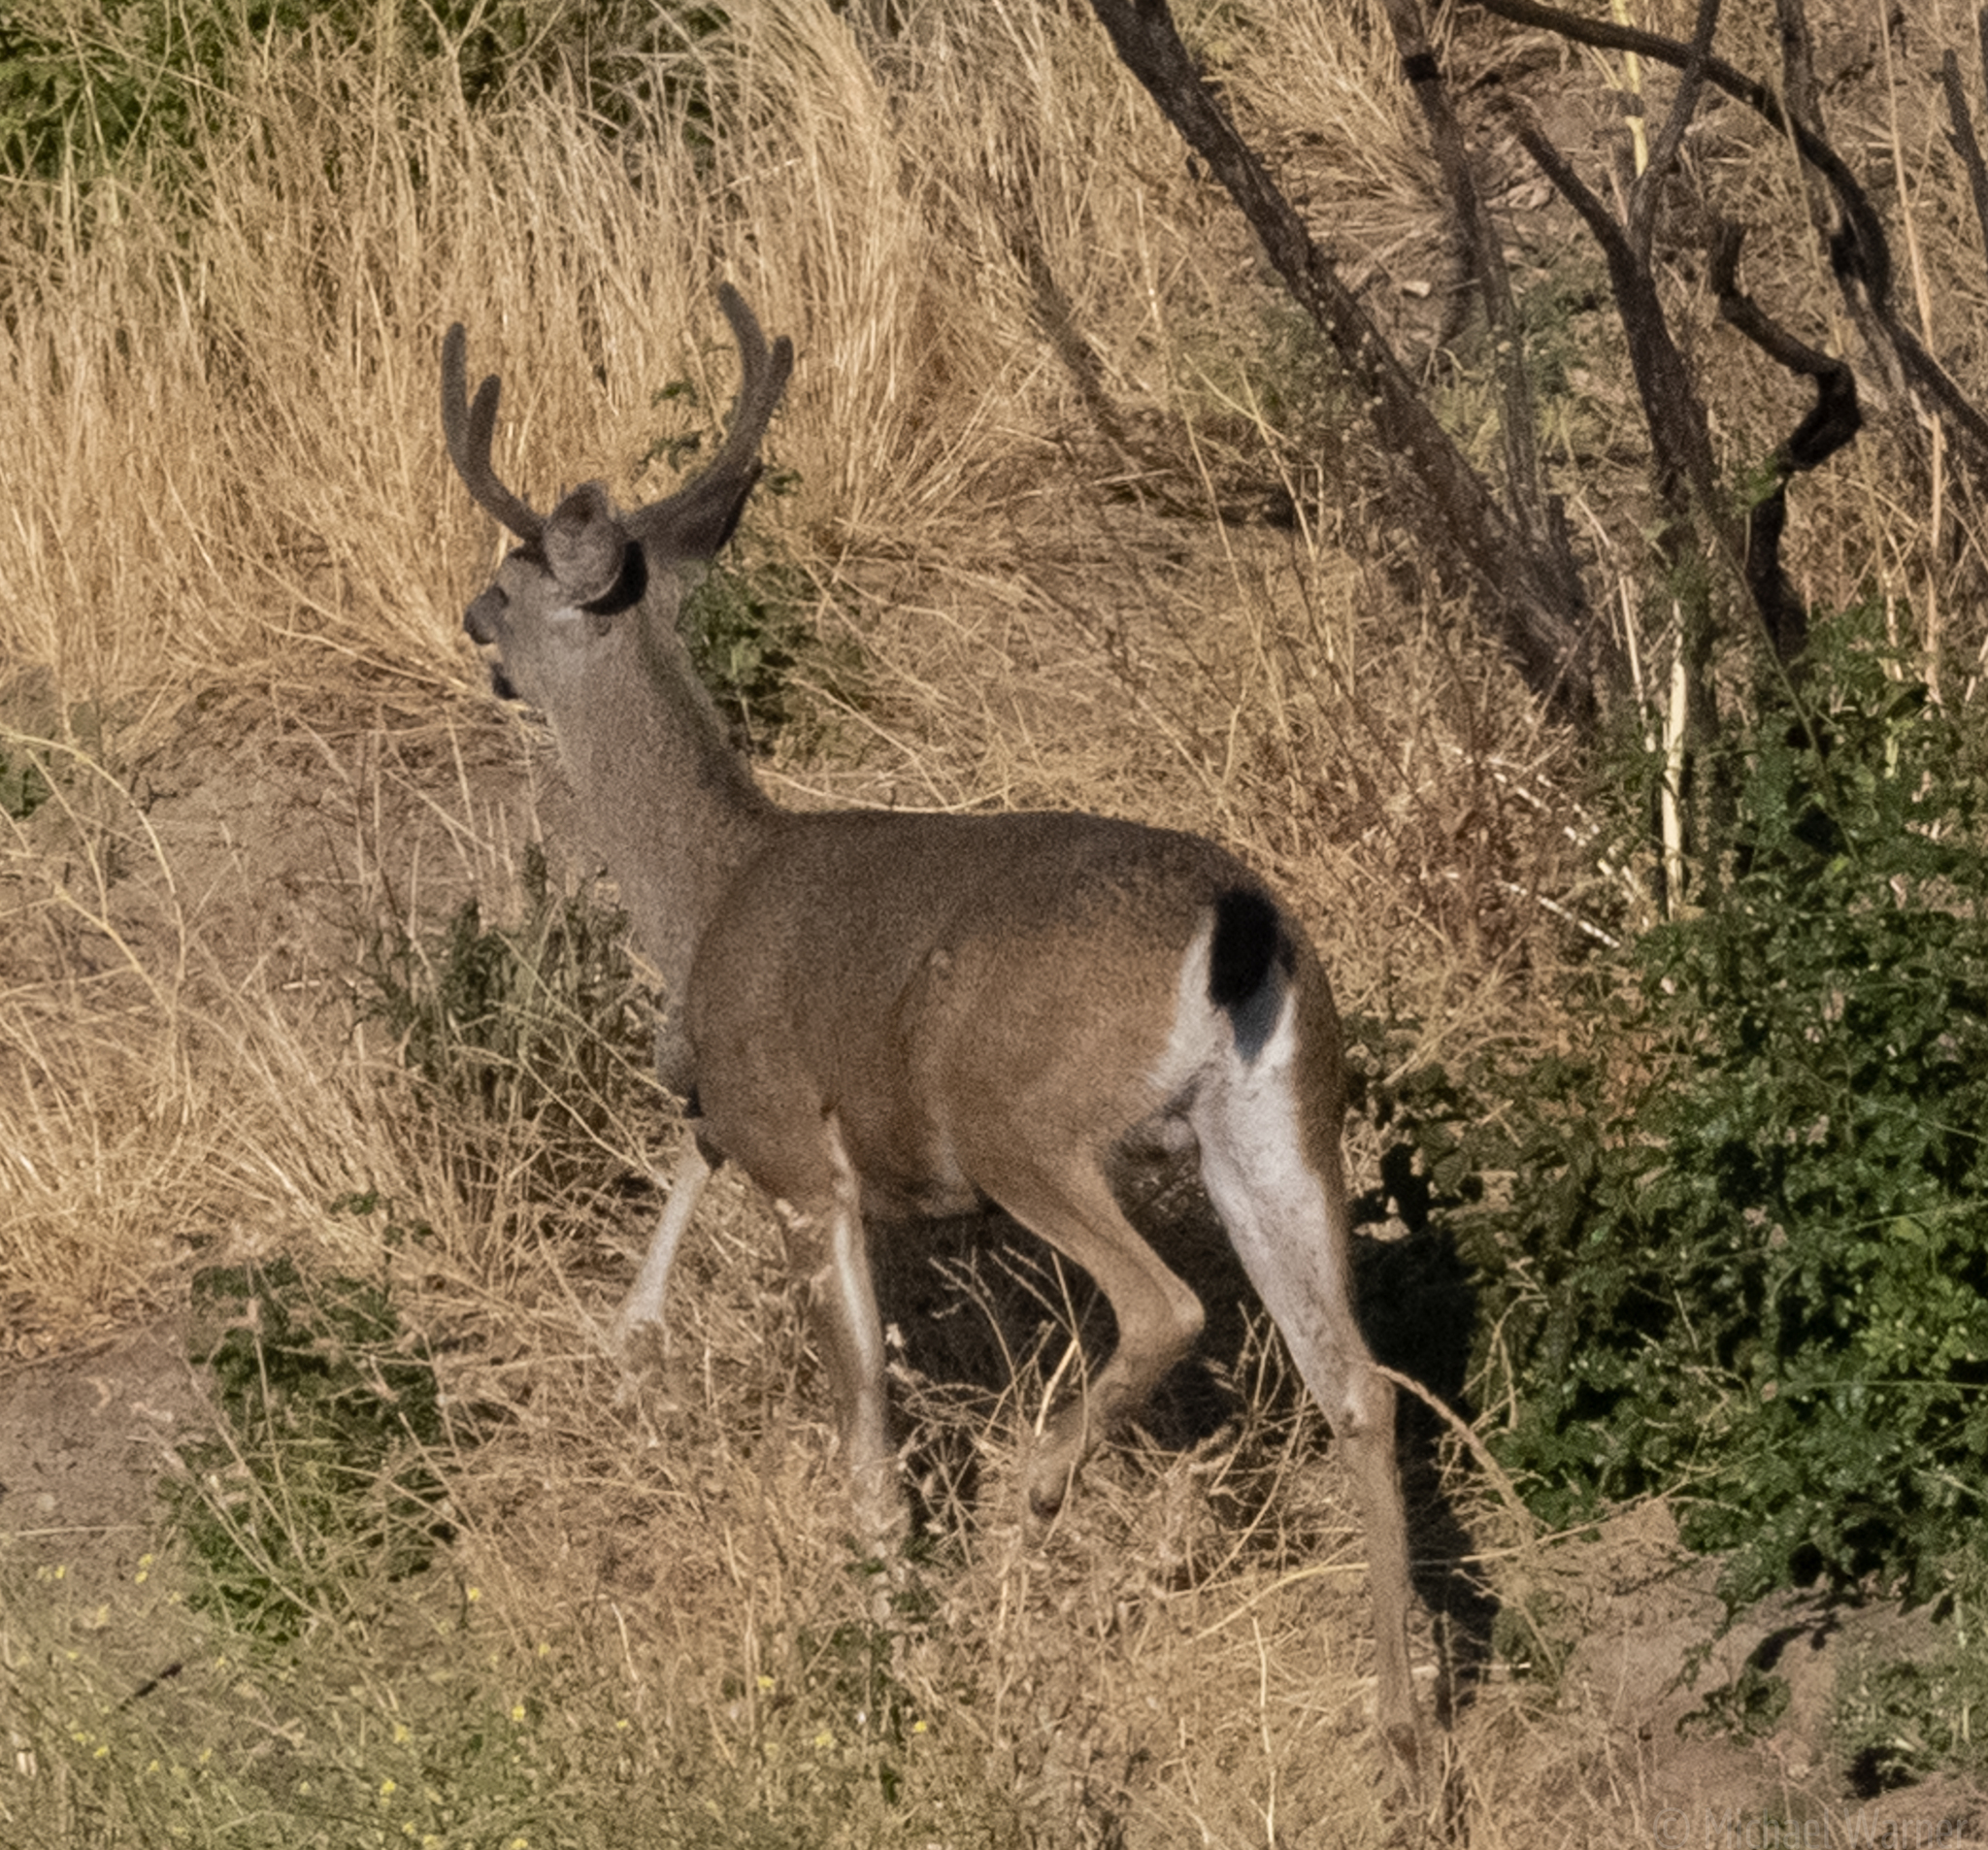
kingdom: Animalia
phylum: Chordata
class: Mammalia
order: Artiodactyla
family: Cervidae
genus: Odocoileus
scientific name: Odocoileus hemionus
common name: Mule deer
